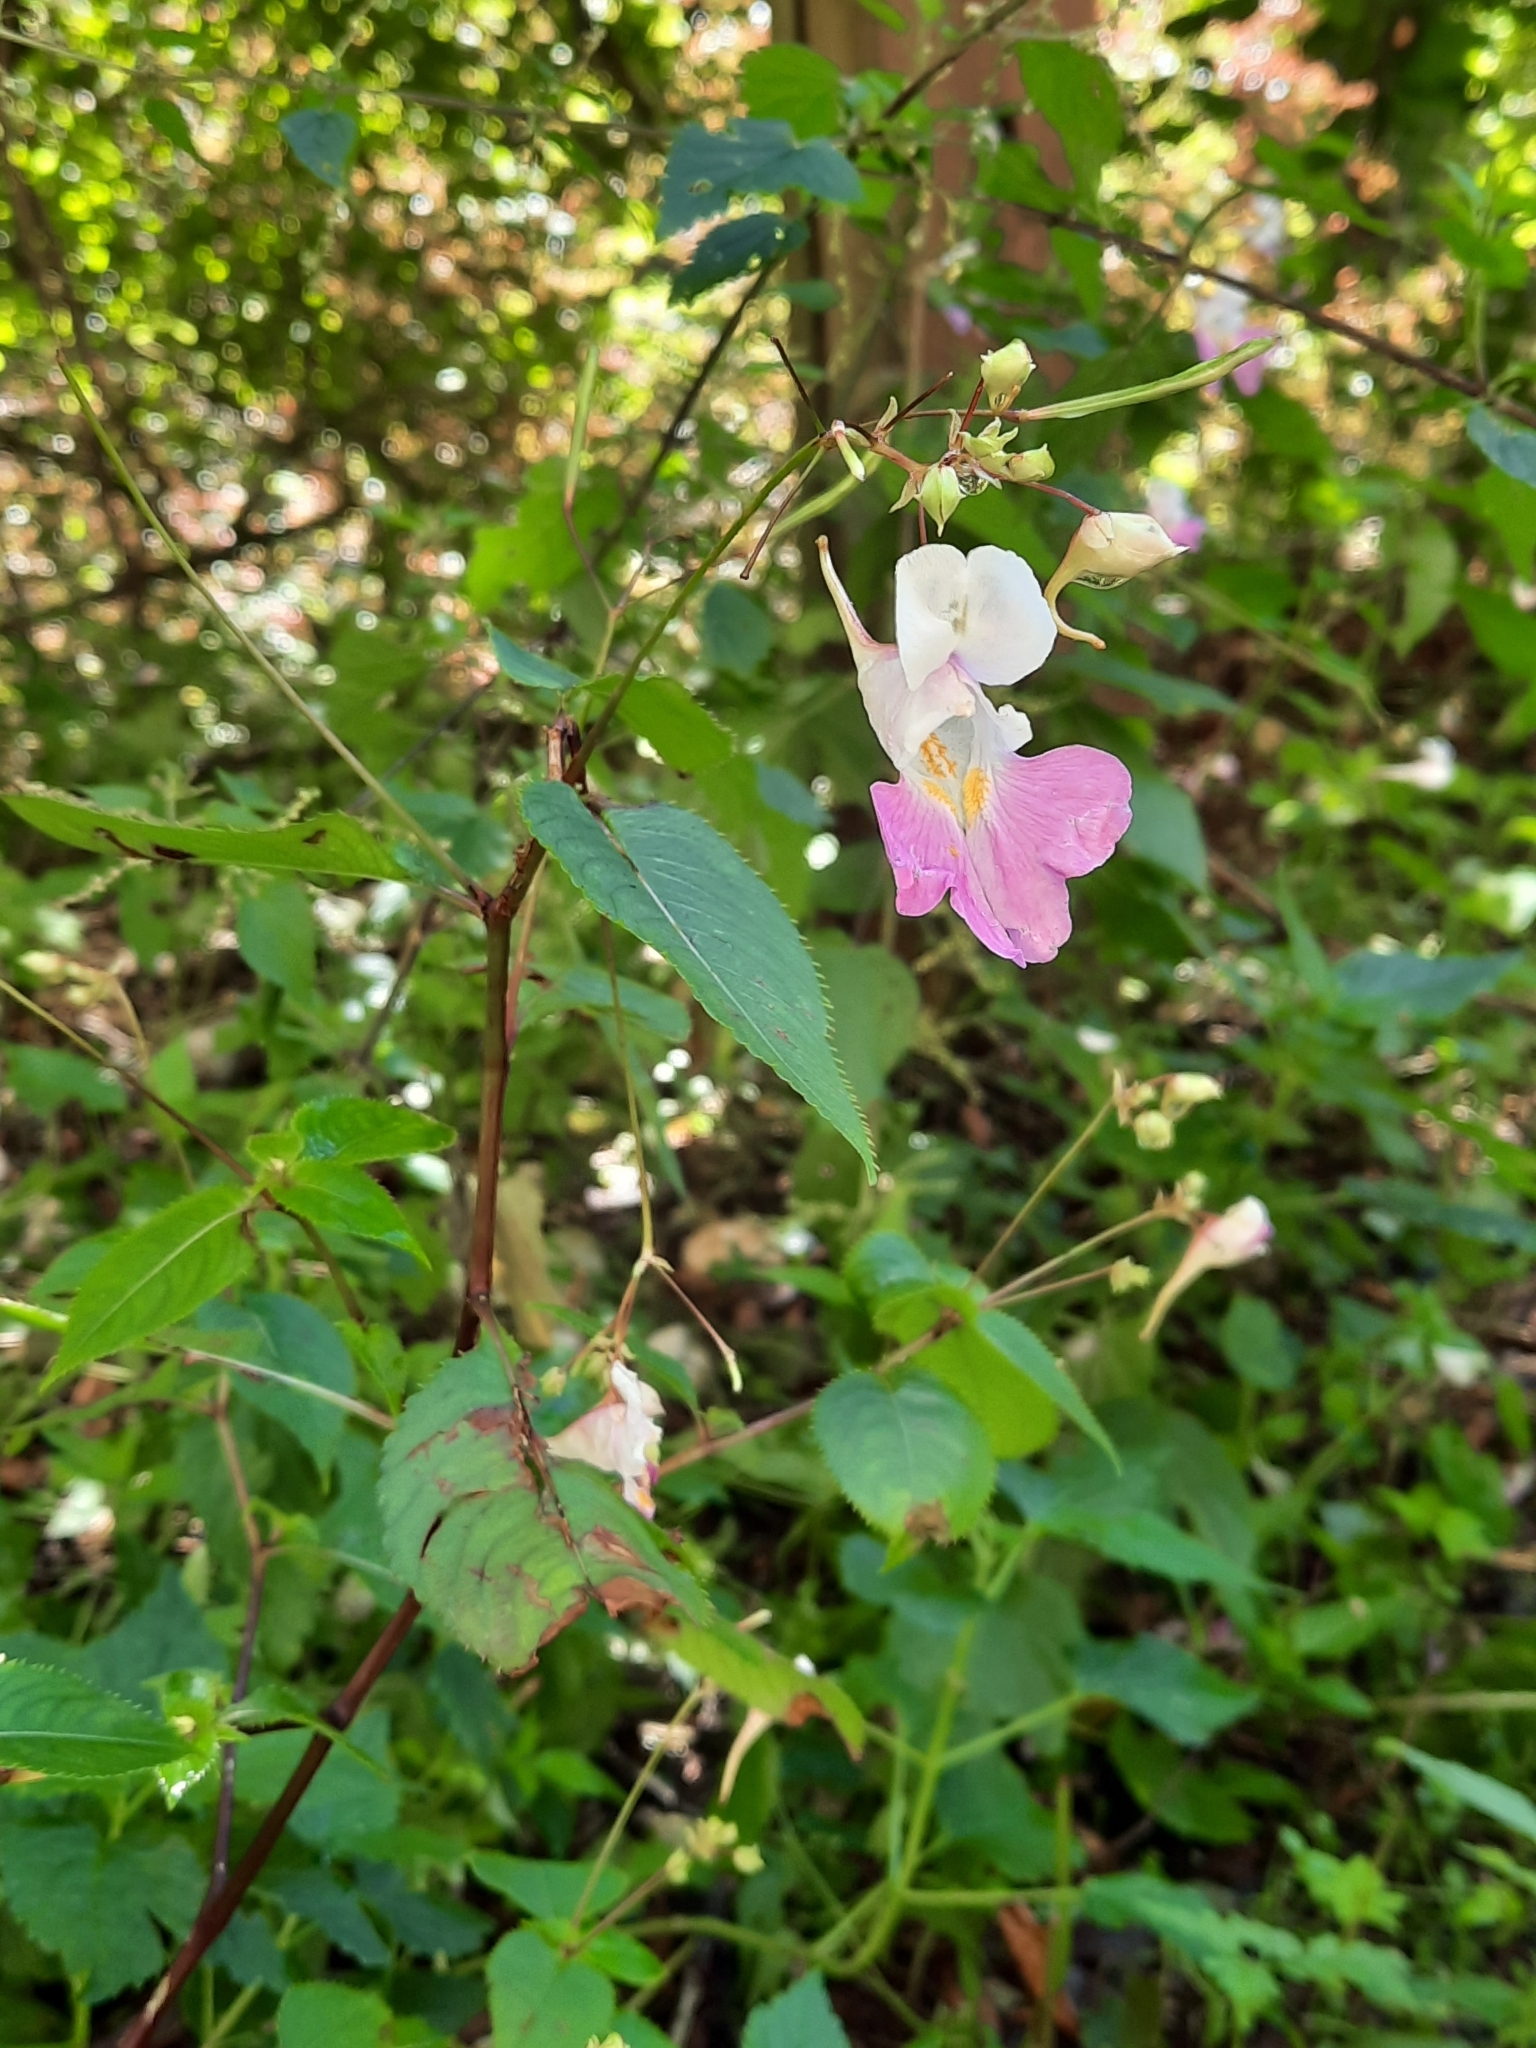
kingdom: Plantae
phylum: Tracheophyta
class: Magnoliopsida
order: Ericales
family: Balsaminaceae
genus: Impatiens
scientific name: Impatiens balfourii
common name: Balfour's touch-me-not
